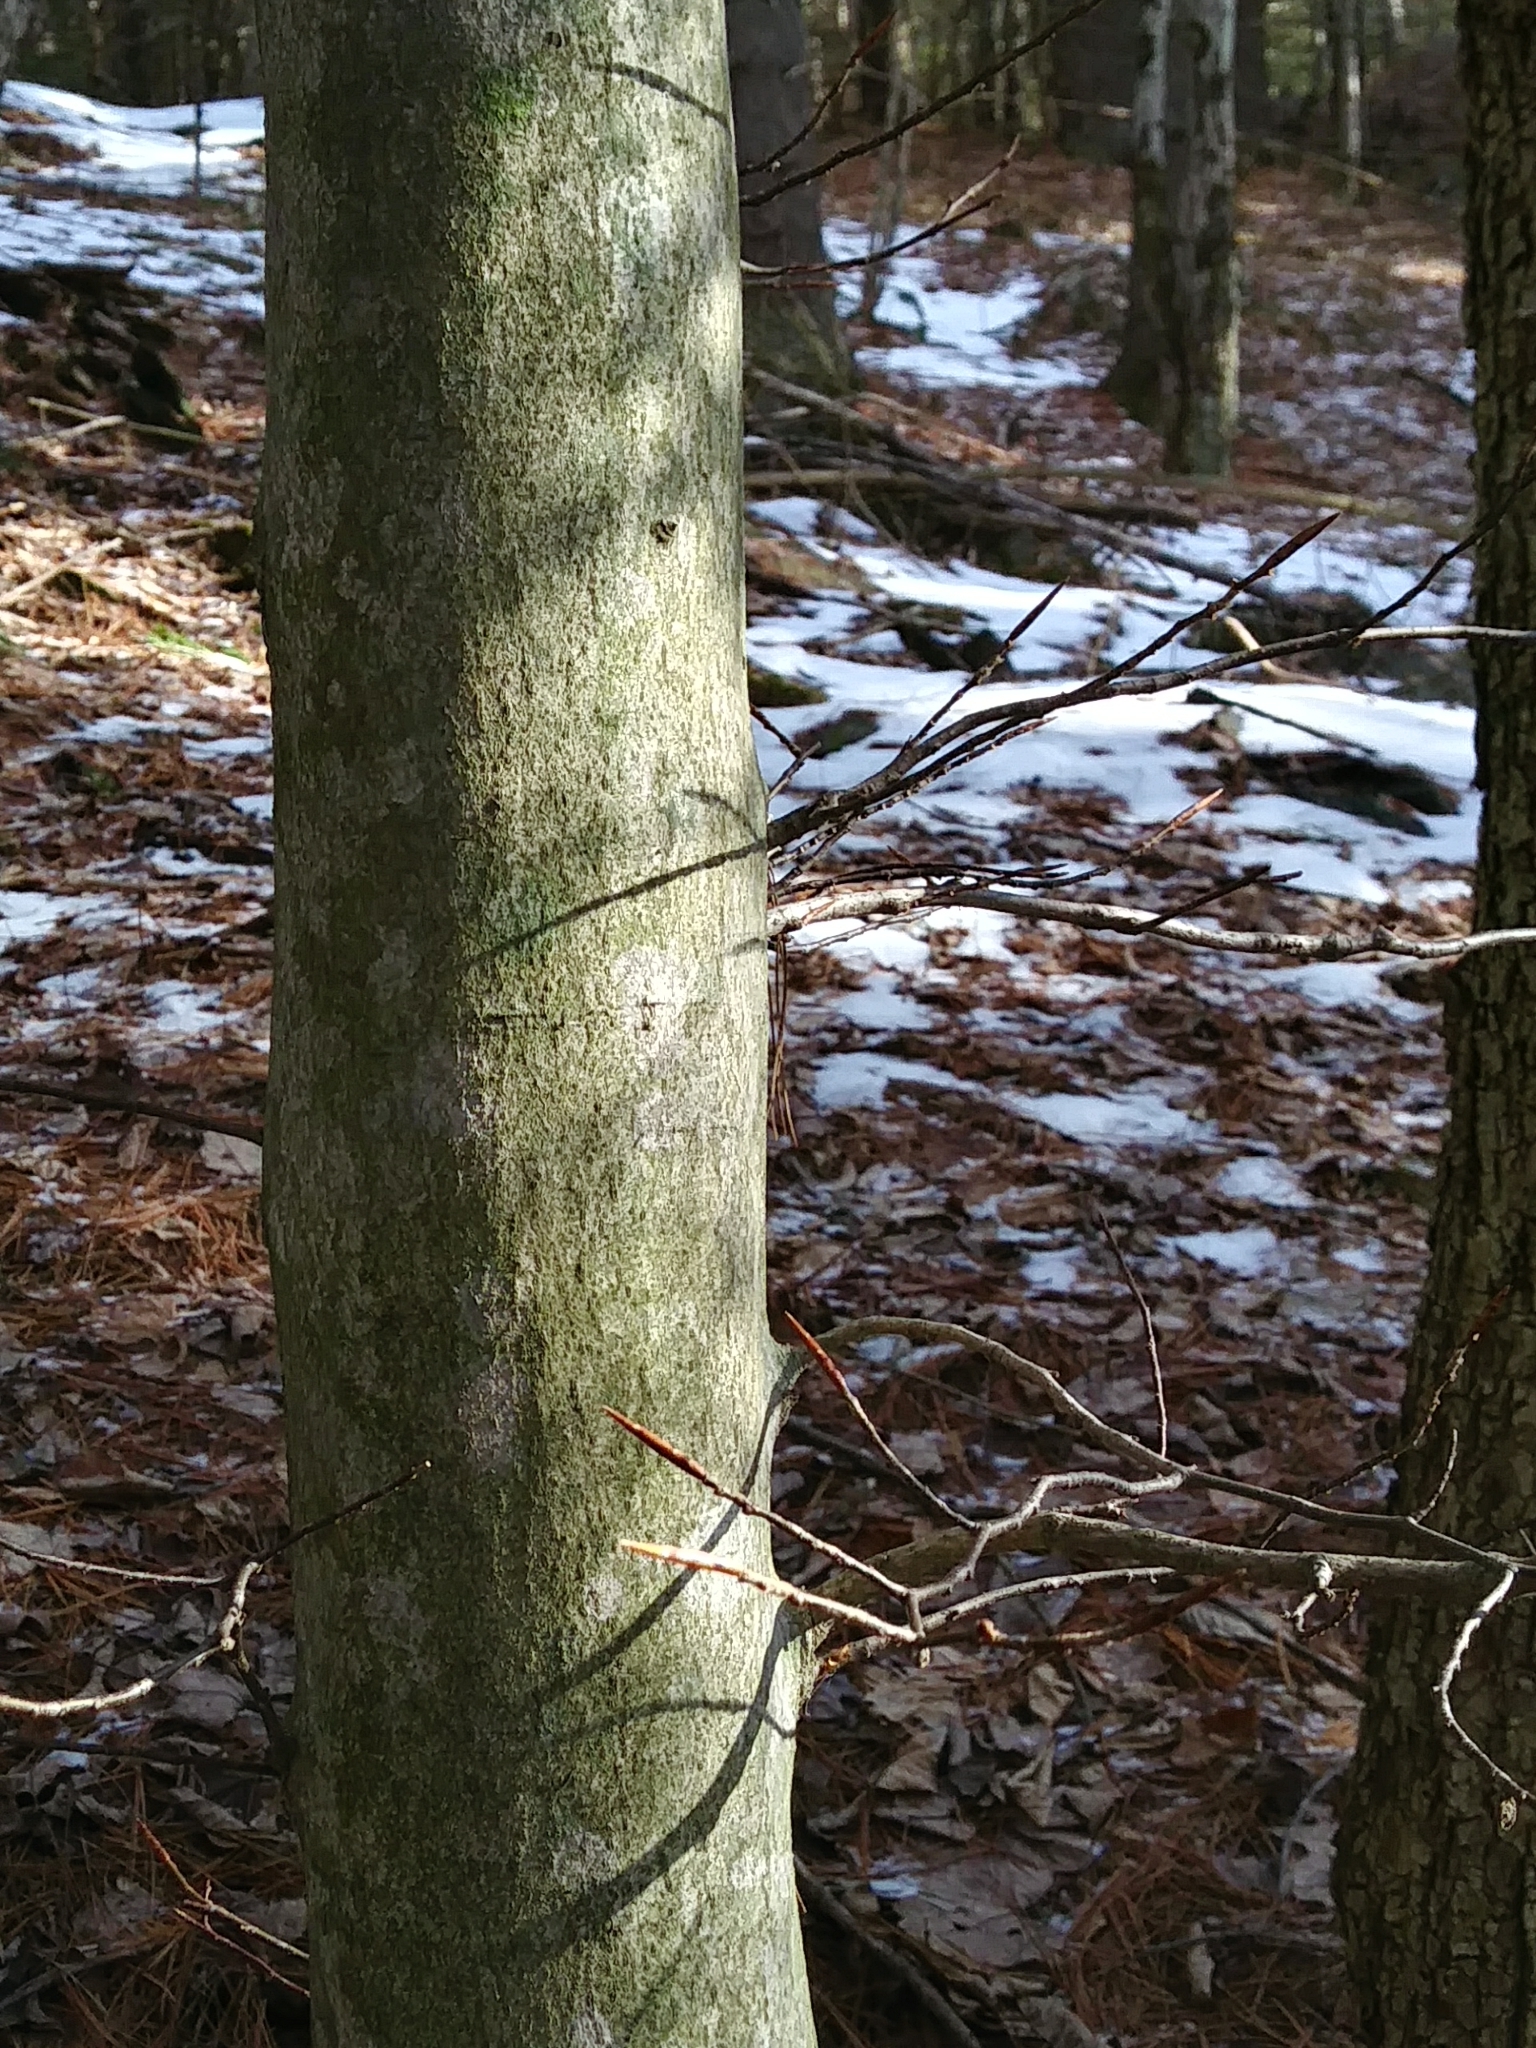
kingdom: Plantae
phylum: Tracheophyta
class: Magnoliopsida
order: Fagales
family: Fagaceae
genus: Fagus
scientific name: Fagus grandifolia
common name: American beech
